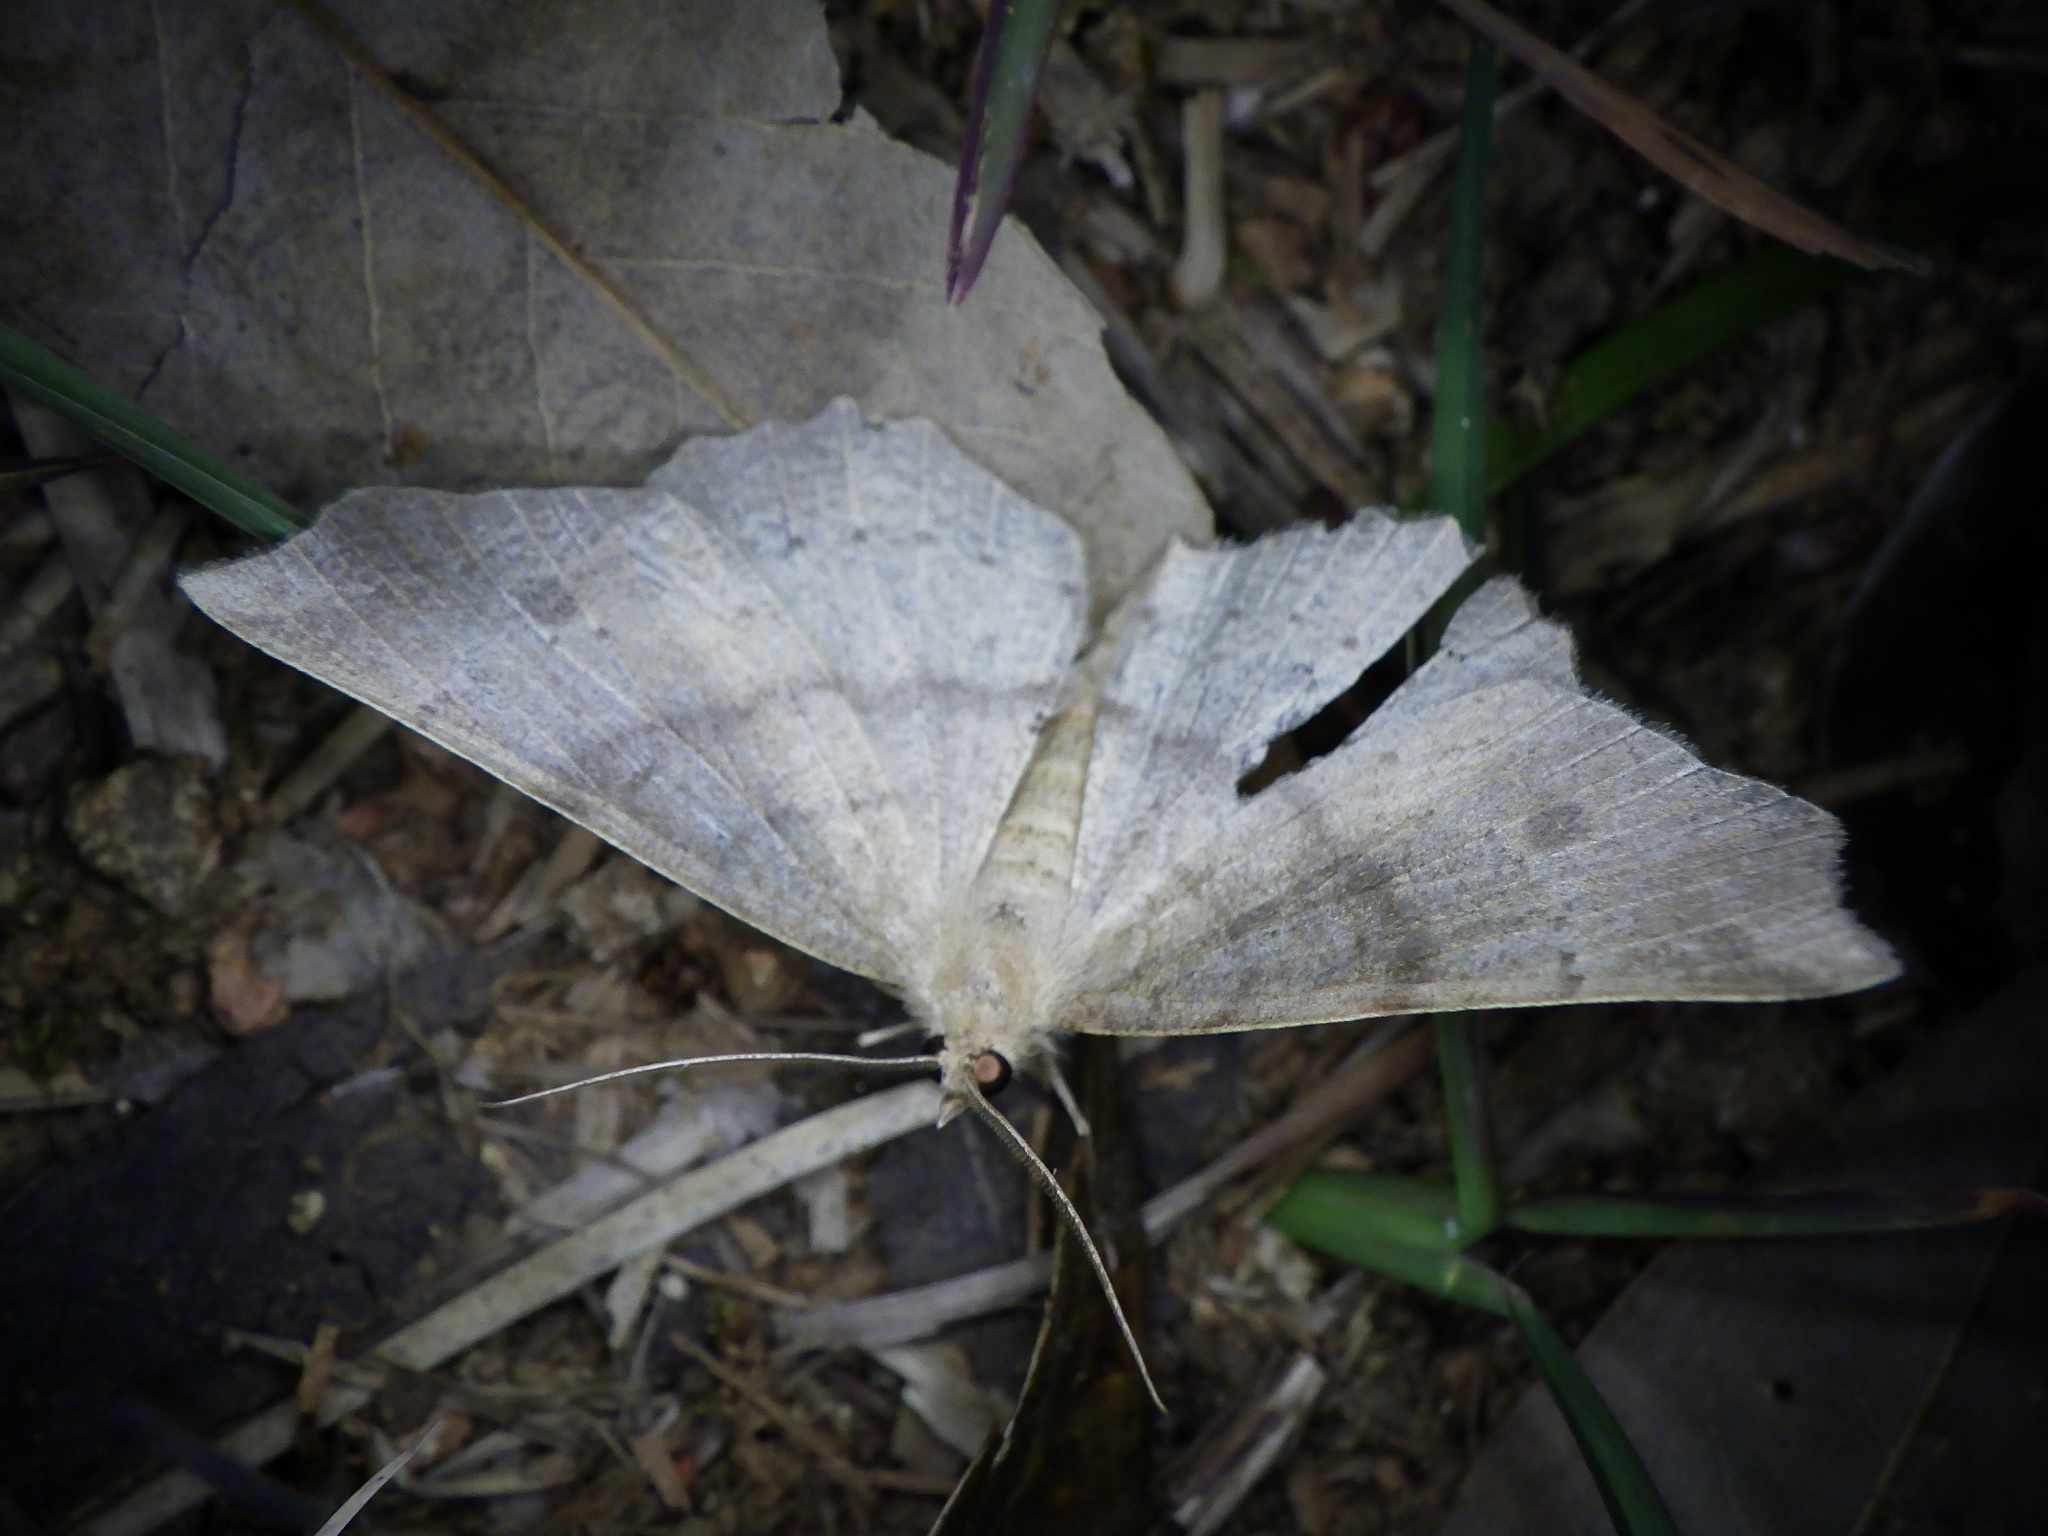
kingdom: Animalia
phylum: Arthropoda
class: Insecta
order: Lepidoptera
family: Geometridae
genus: Xerodes
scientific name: Xerodes albonotaria
